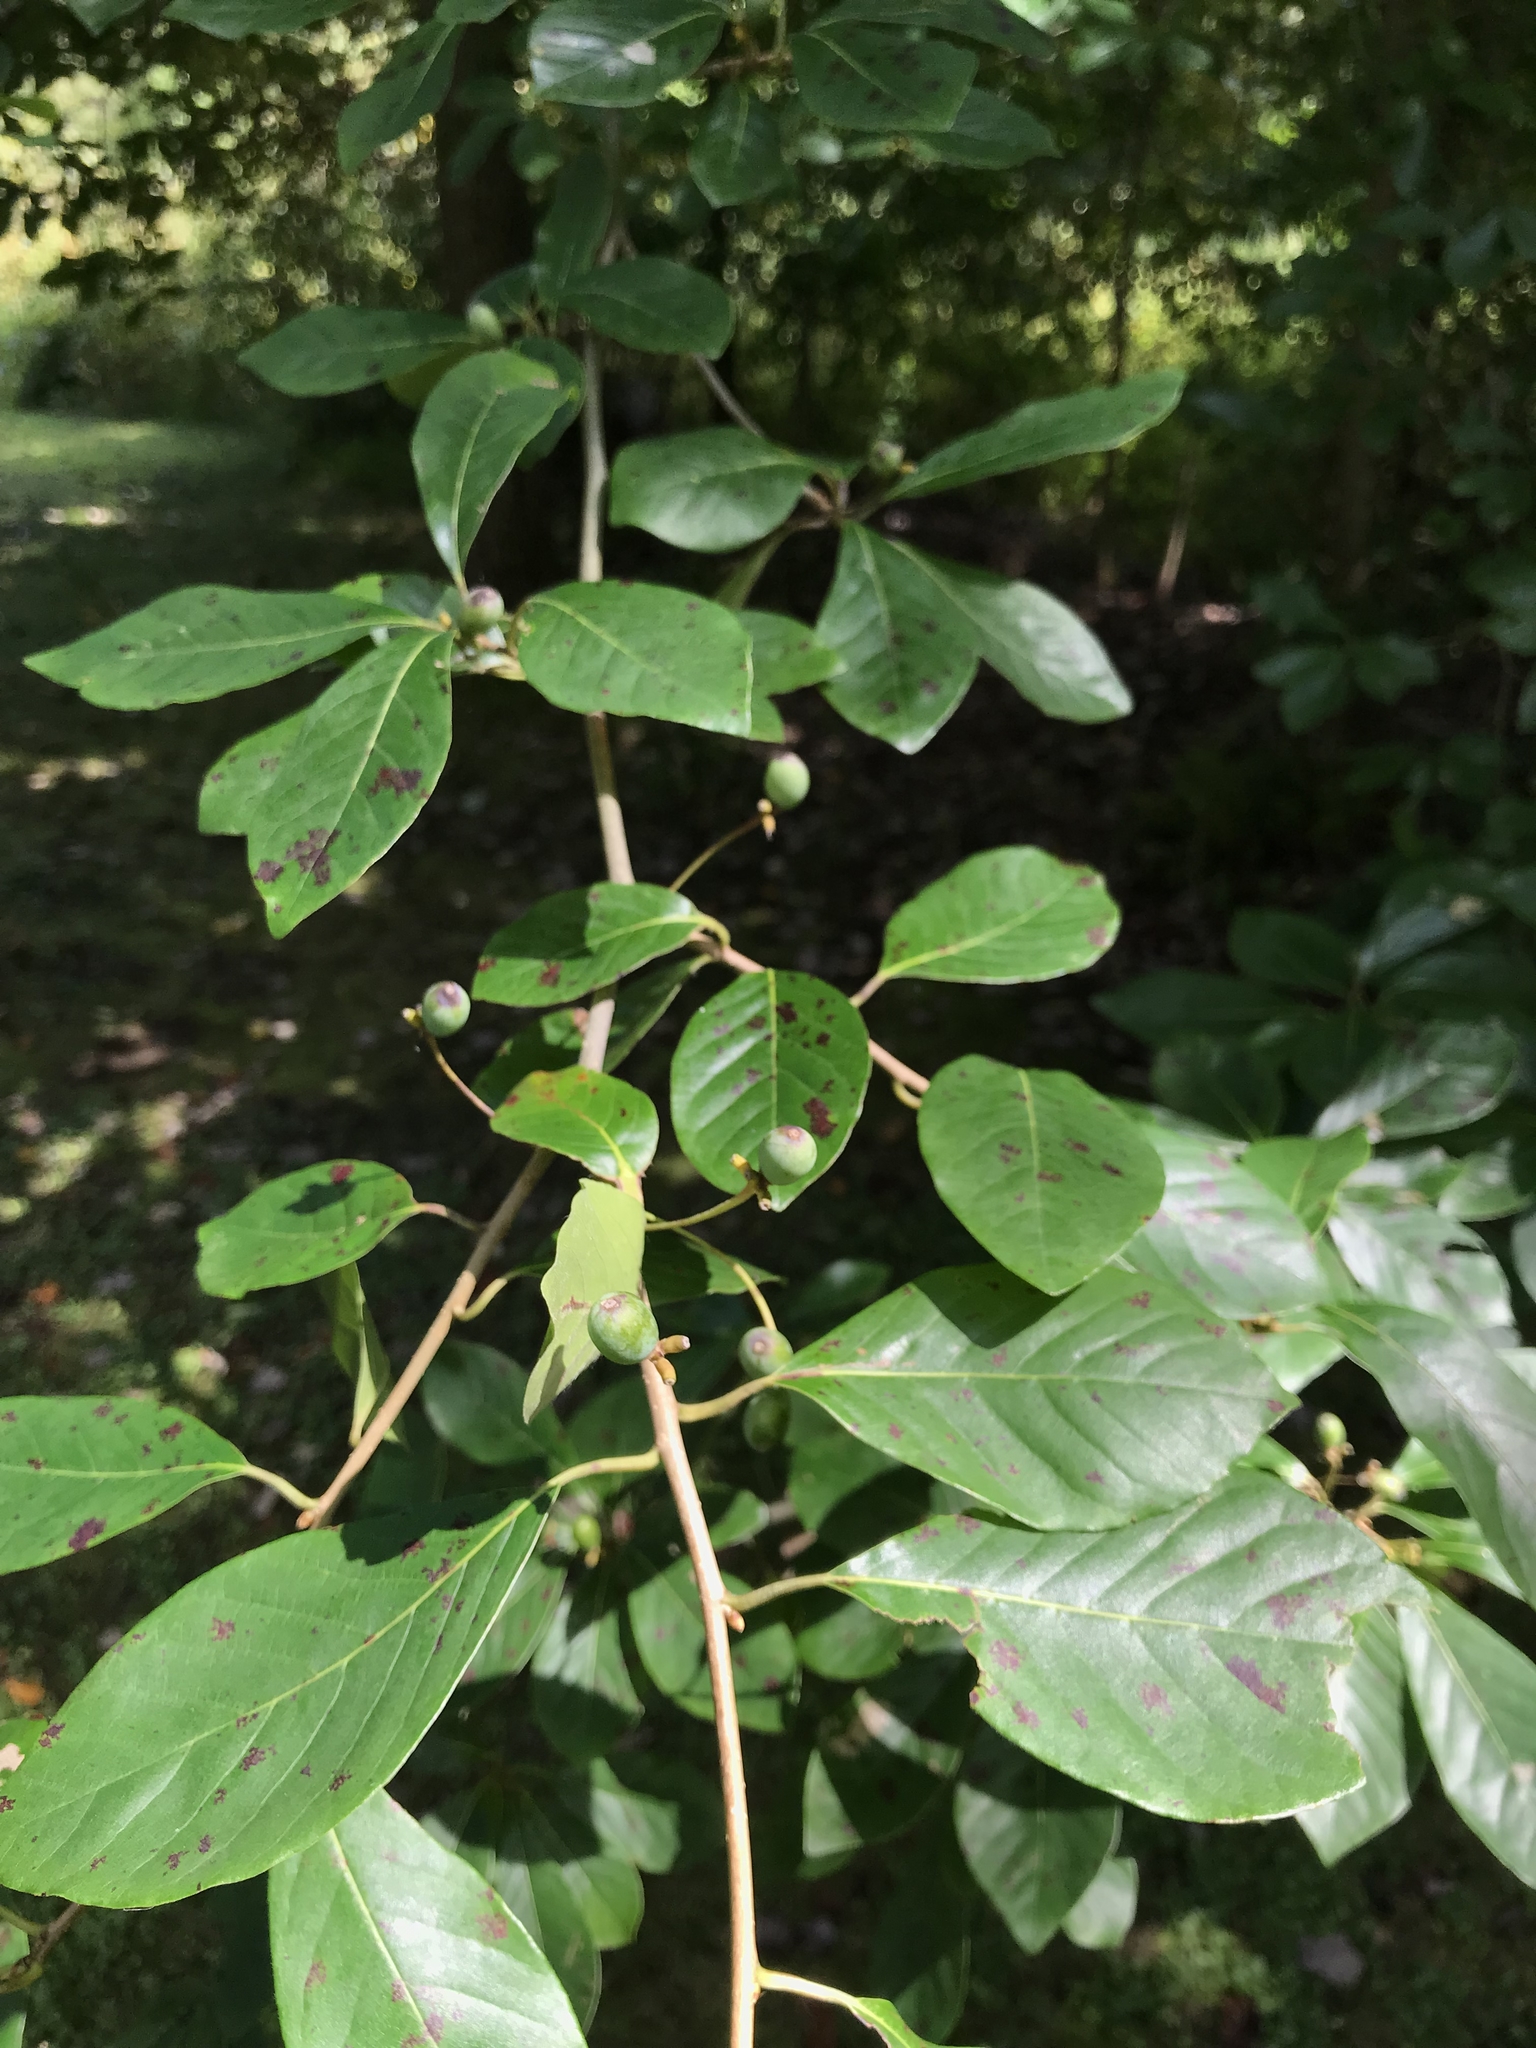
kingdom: Plantae
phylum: Tracheophyta
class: Magnoliopsida
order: Cornales
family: Nyssaceae
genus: Nyssa
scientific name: Nyssa sylvatica
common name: Black tupelo
